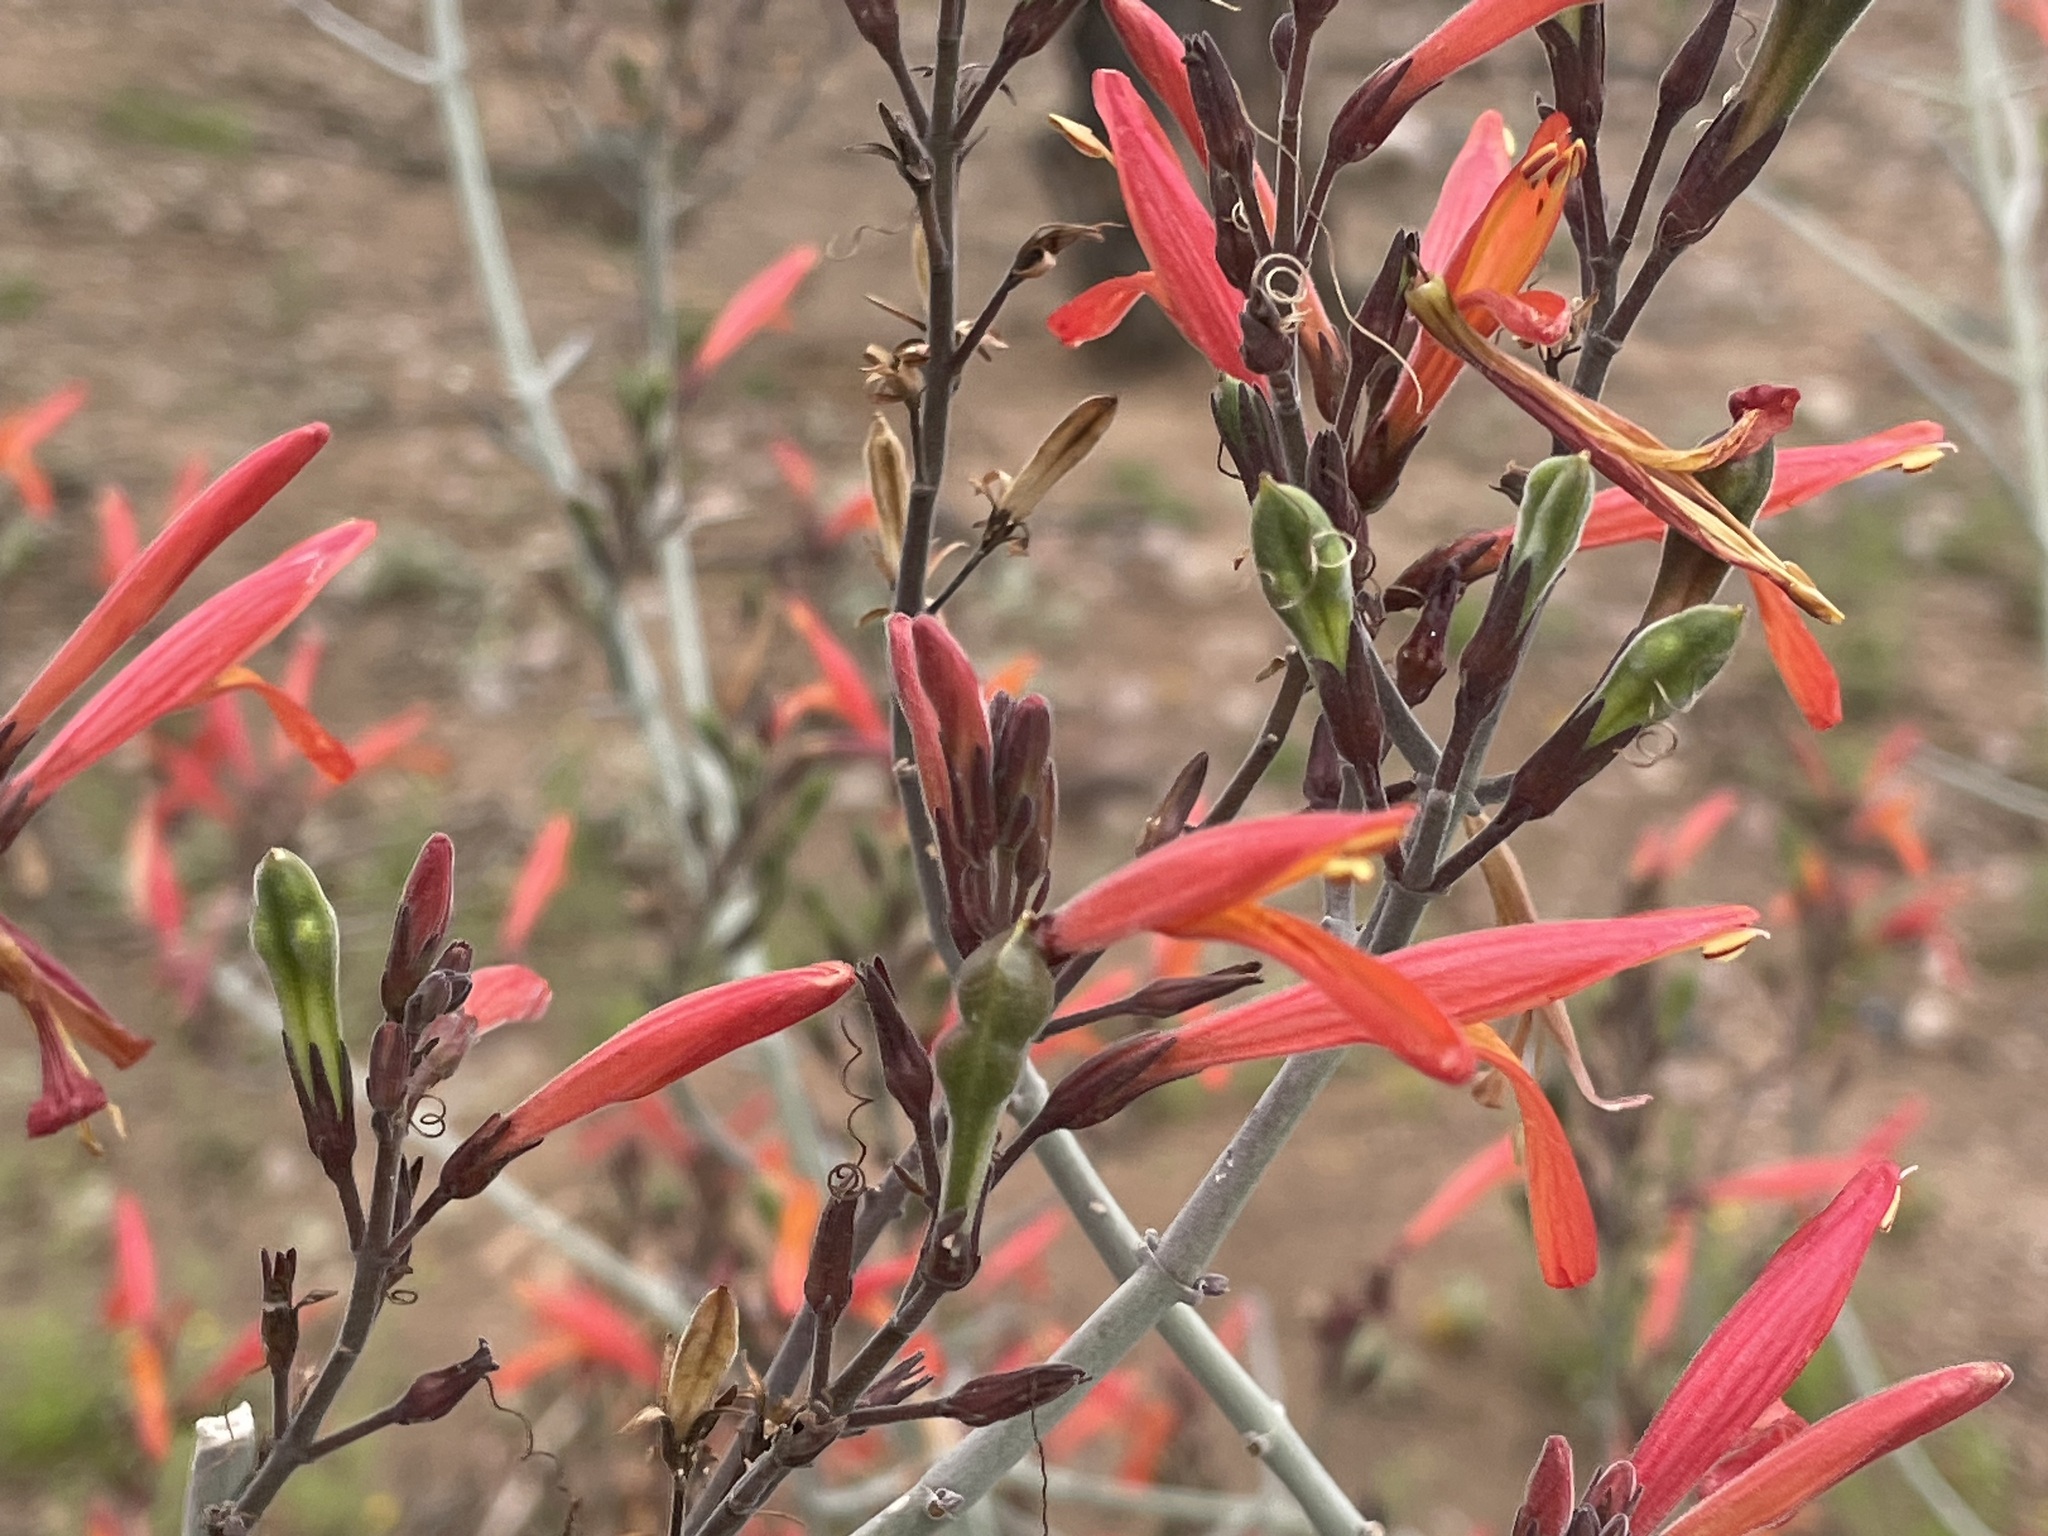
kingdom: Plantae
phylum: Tracheophyta
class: Magnoliopsida
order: Lamiales
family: Acanthaceae
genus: Justicia
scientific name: Justicia californica
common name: Chuparosa-honeysuckle
